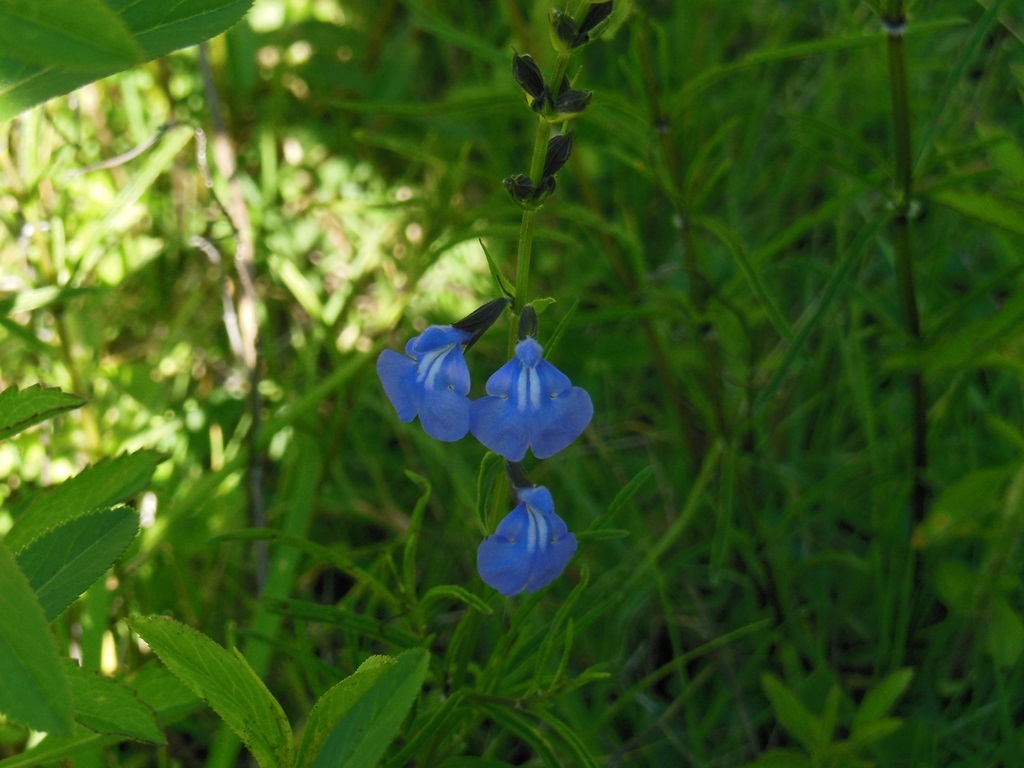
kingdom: Plantae
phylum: Tracheophyta
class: Magnoliopsida
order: Lamiales
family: Lamiaceae
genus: Salvia
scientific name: Salvia reptans
